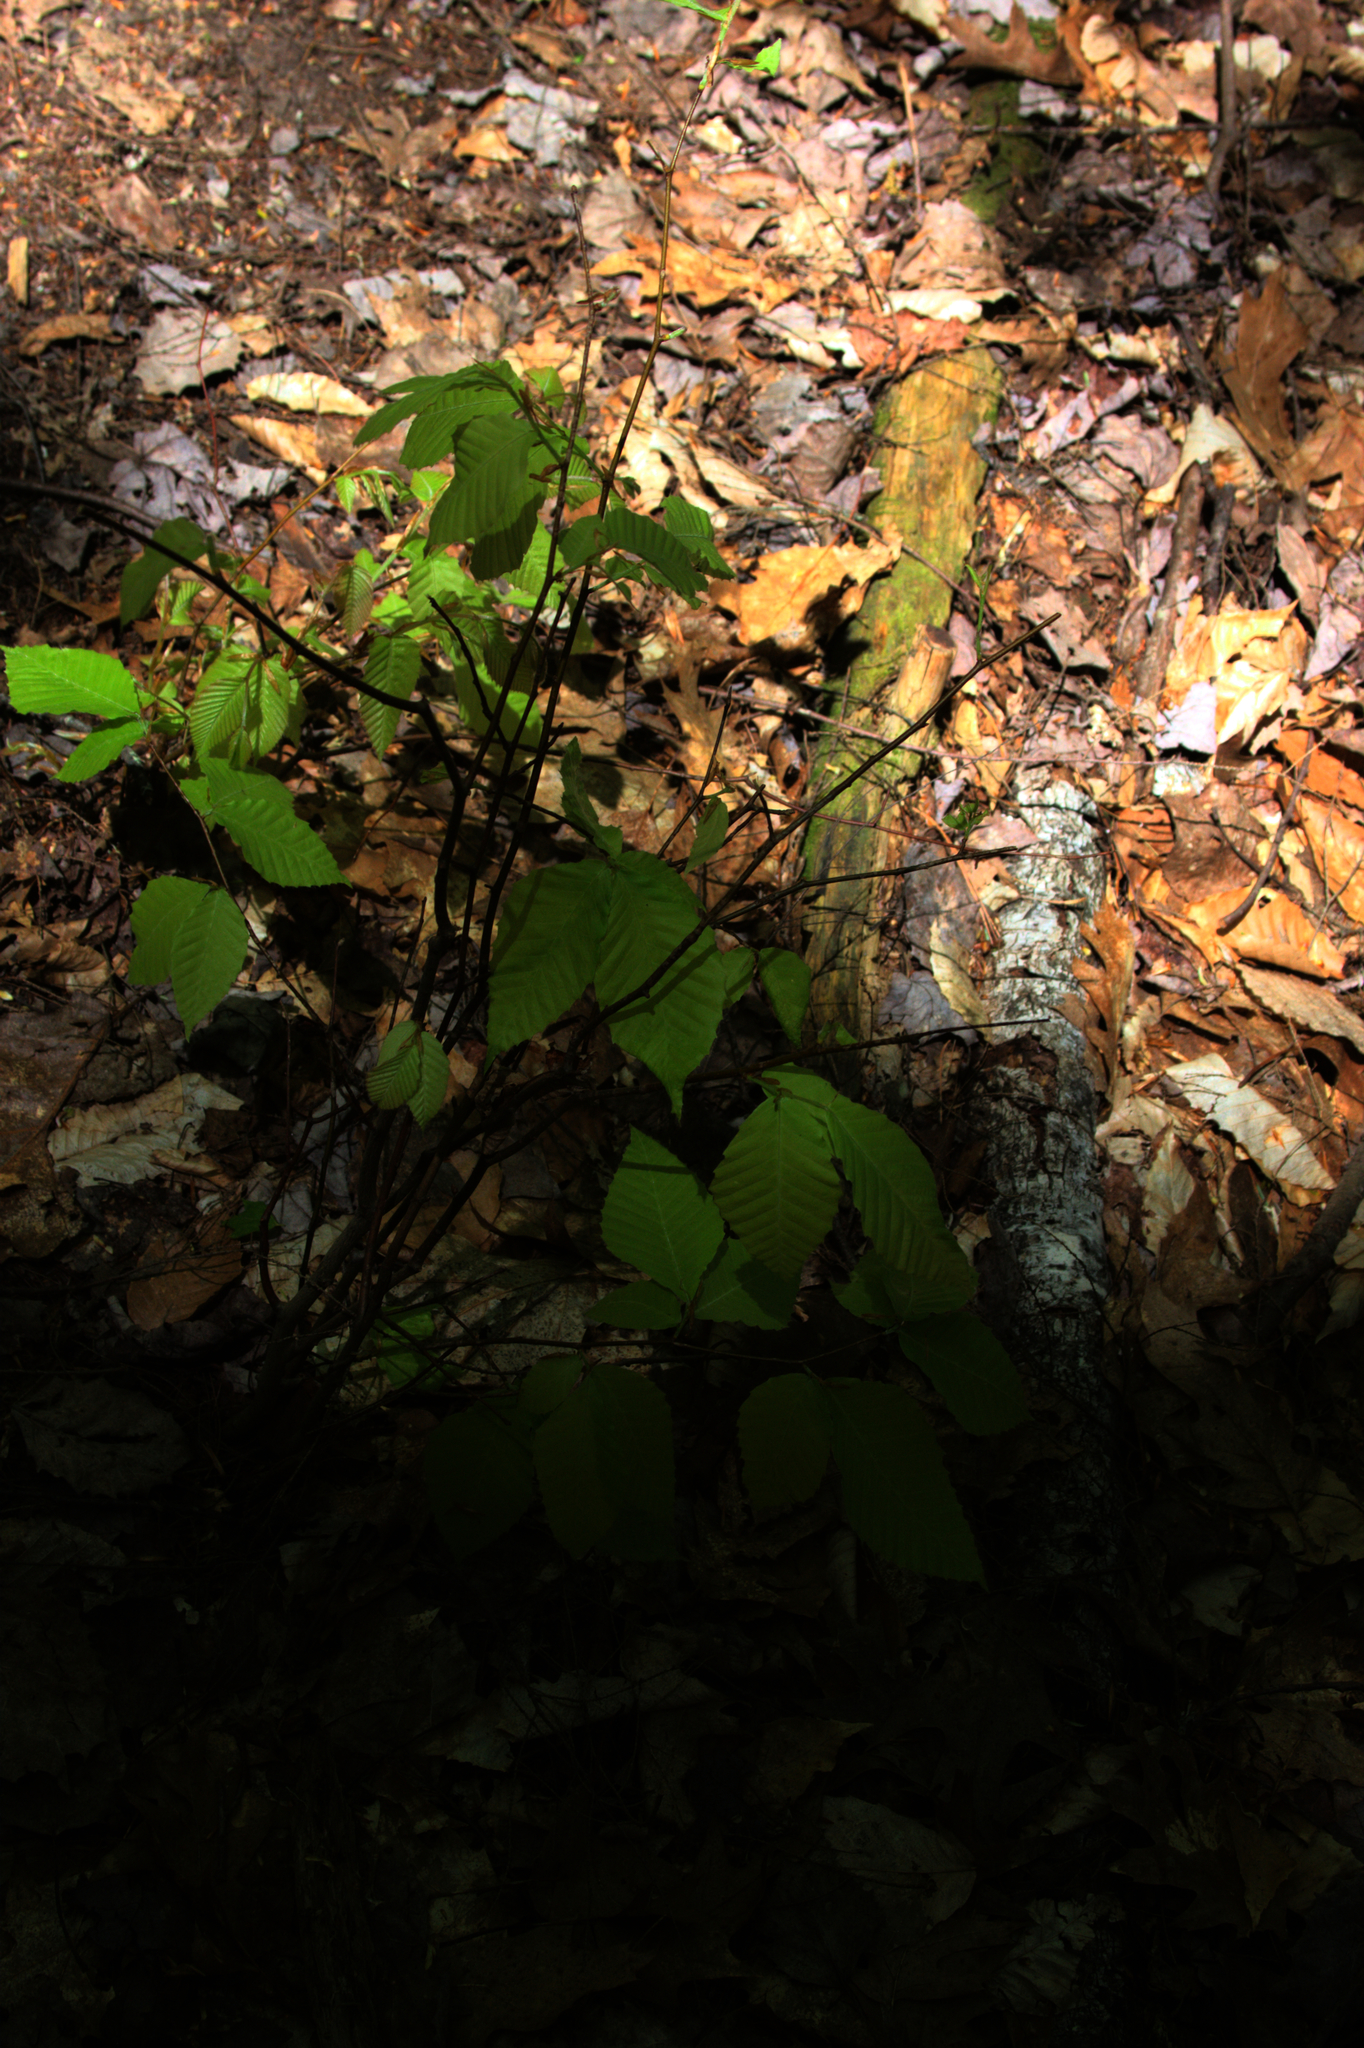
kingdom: Plantae
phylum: Tracheophyta
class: Magnoliopsida
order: Fagales
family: Fagaceae
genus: Fagus
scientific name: Fagus grandifolia
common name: American beech
